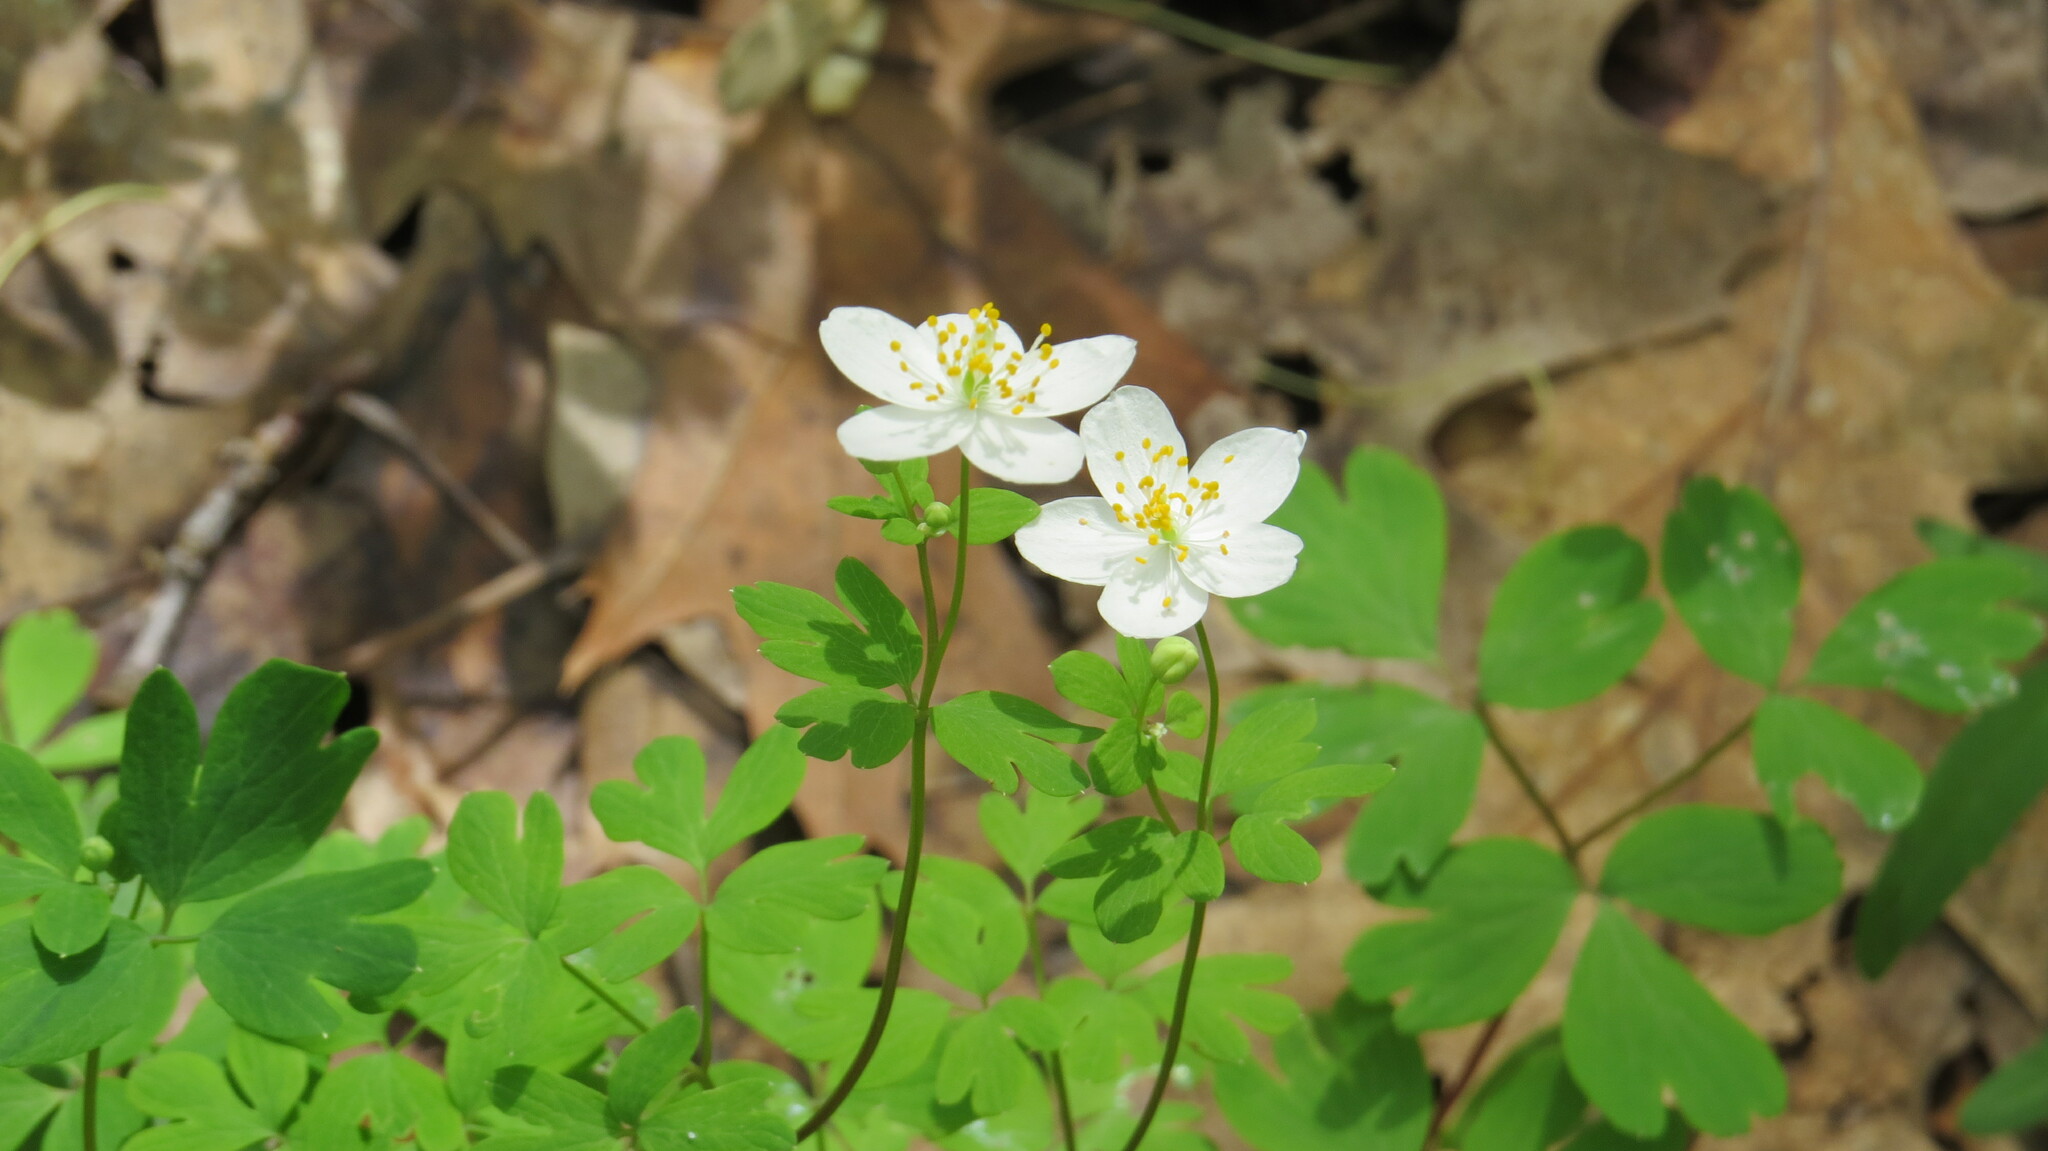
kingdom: Plantae
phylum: Tracheophyta
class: Magnoliopsida
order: Ranunculales
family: Ranunculaceae
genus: Enemion
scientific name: Enemion biternatum
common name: Eastern false rue-anemone
